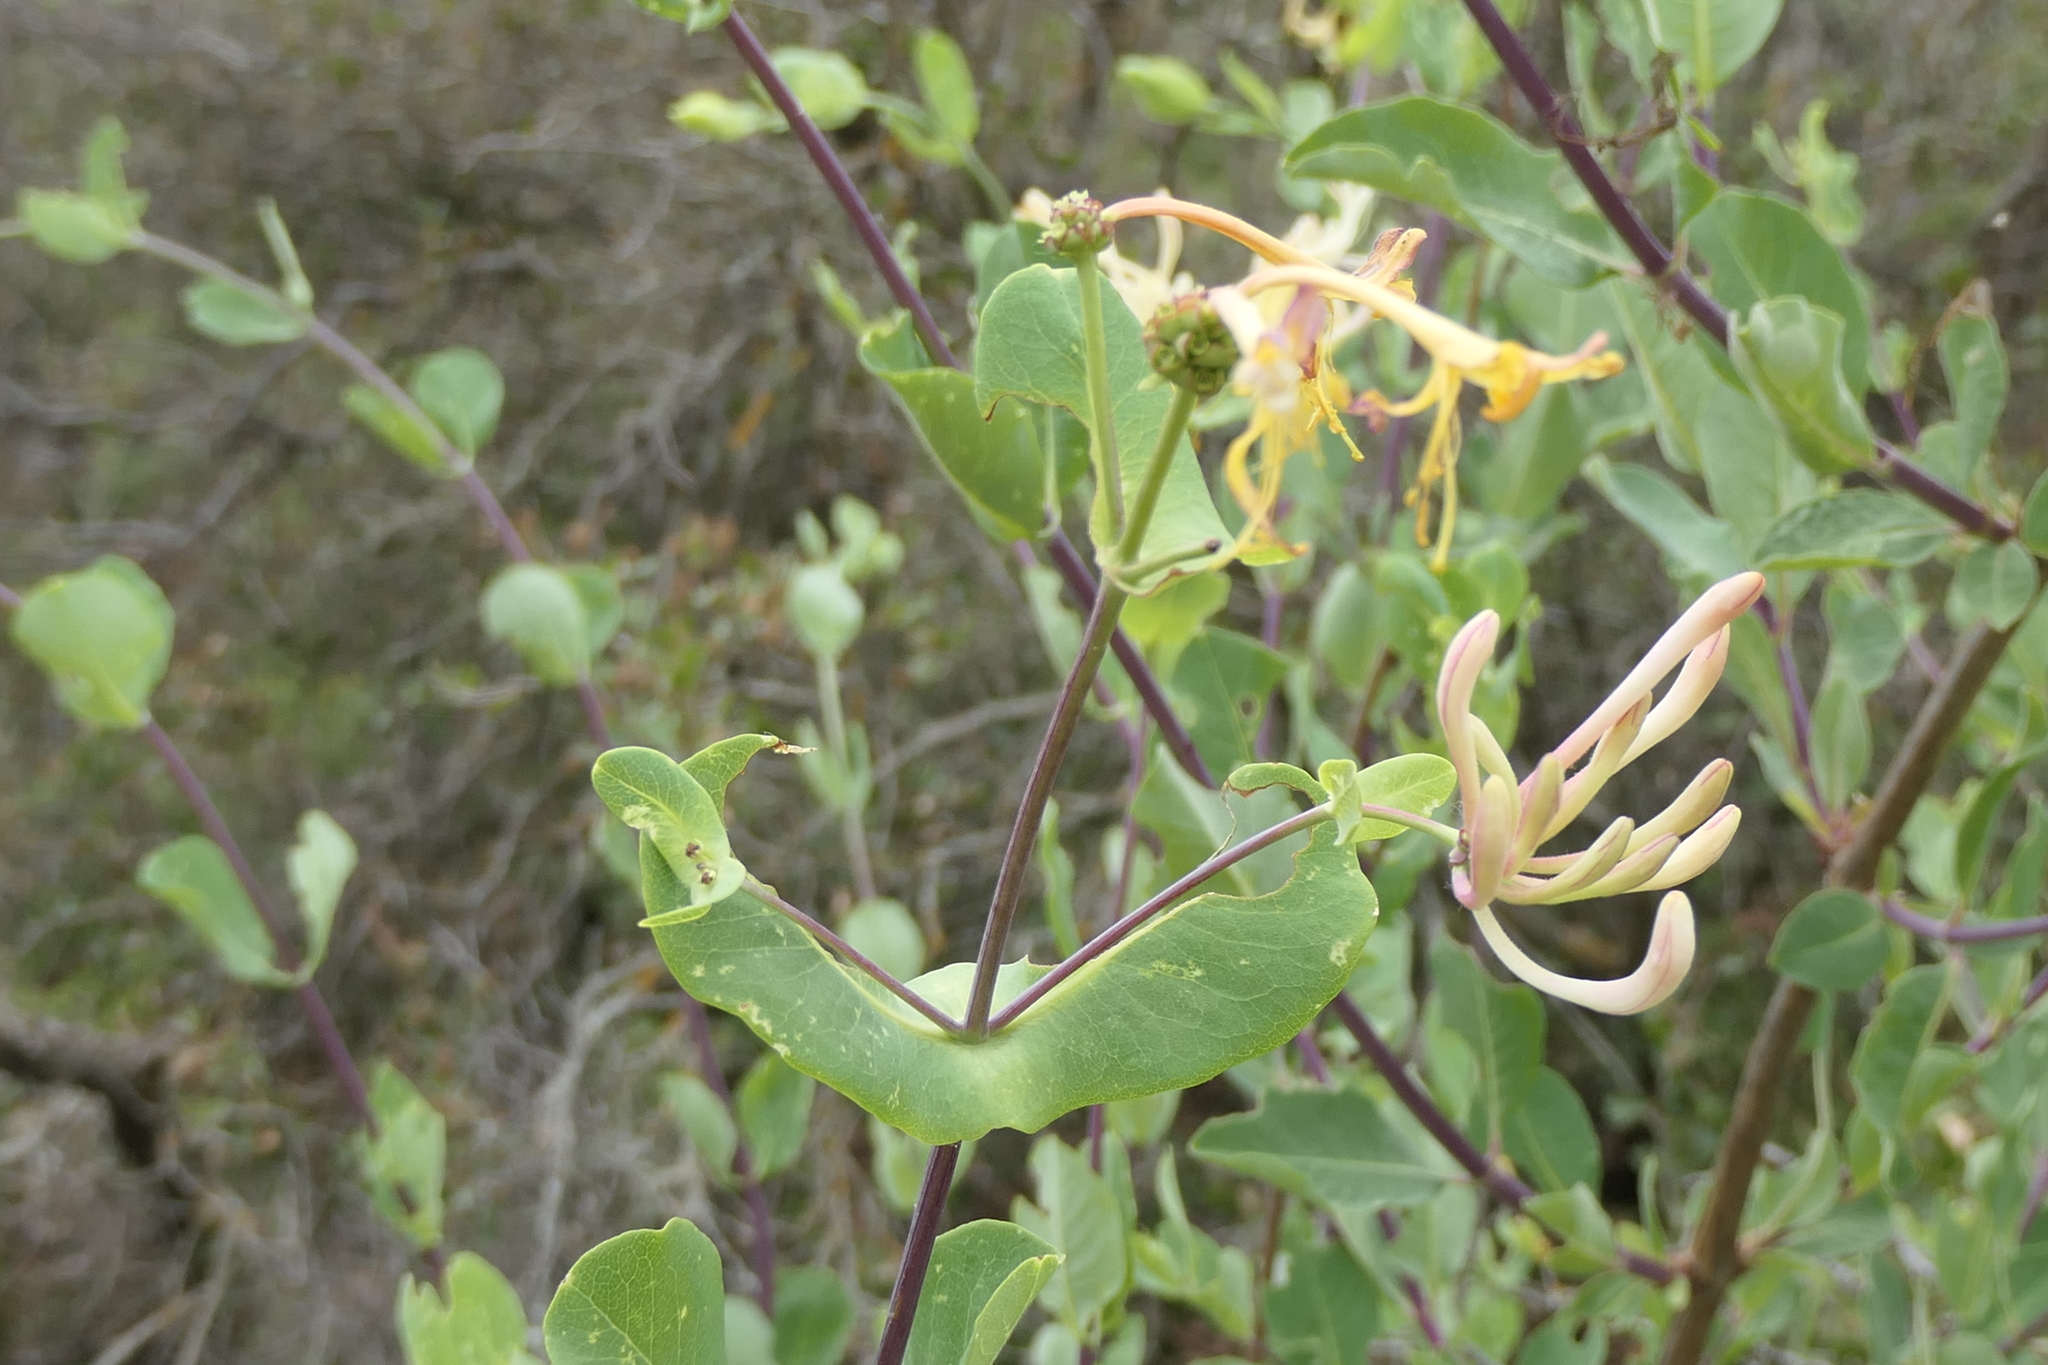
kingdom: Plantae
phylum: Tracheophyta
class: Magnoliopsida
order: Dipsacales
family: Caprifoliaceae
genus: Lonicera
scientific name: Lonicera etrusca
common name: Etruscan honeysuckle
